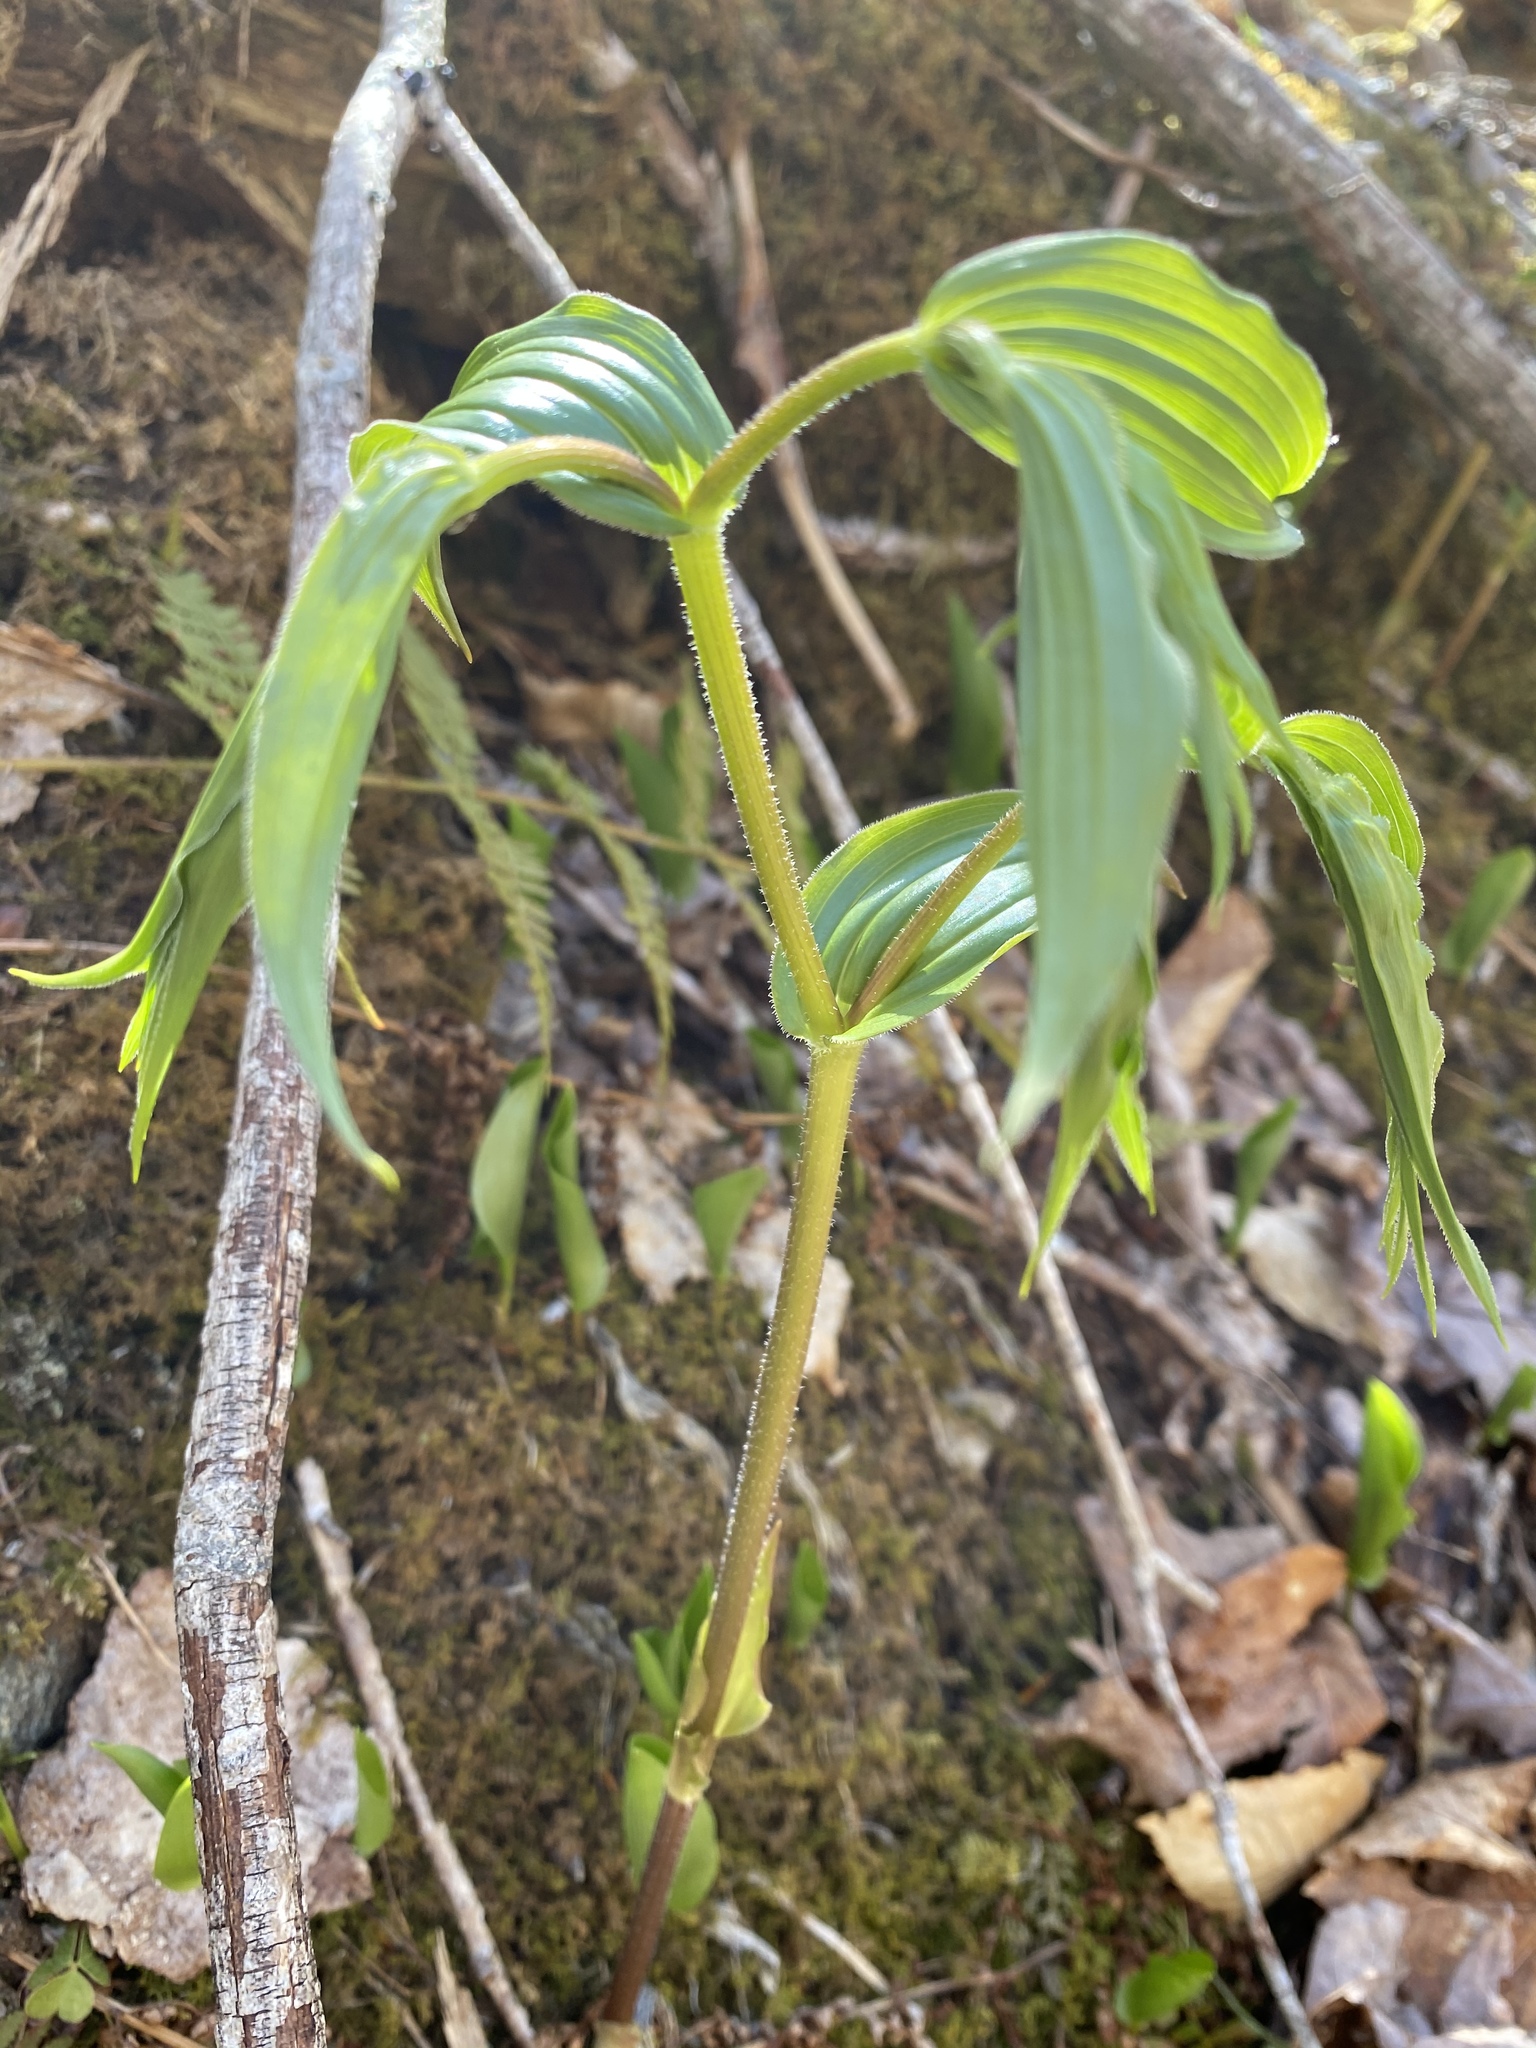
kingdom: Plantae
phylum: Tracheophyta
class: Liliopsida
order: Liliales
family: Liliaceae
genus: Streptopus
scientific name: Streptopus lanceolatus
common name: Rose mandarin
